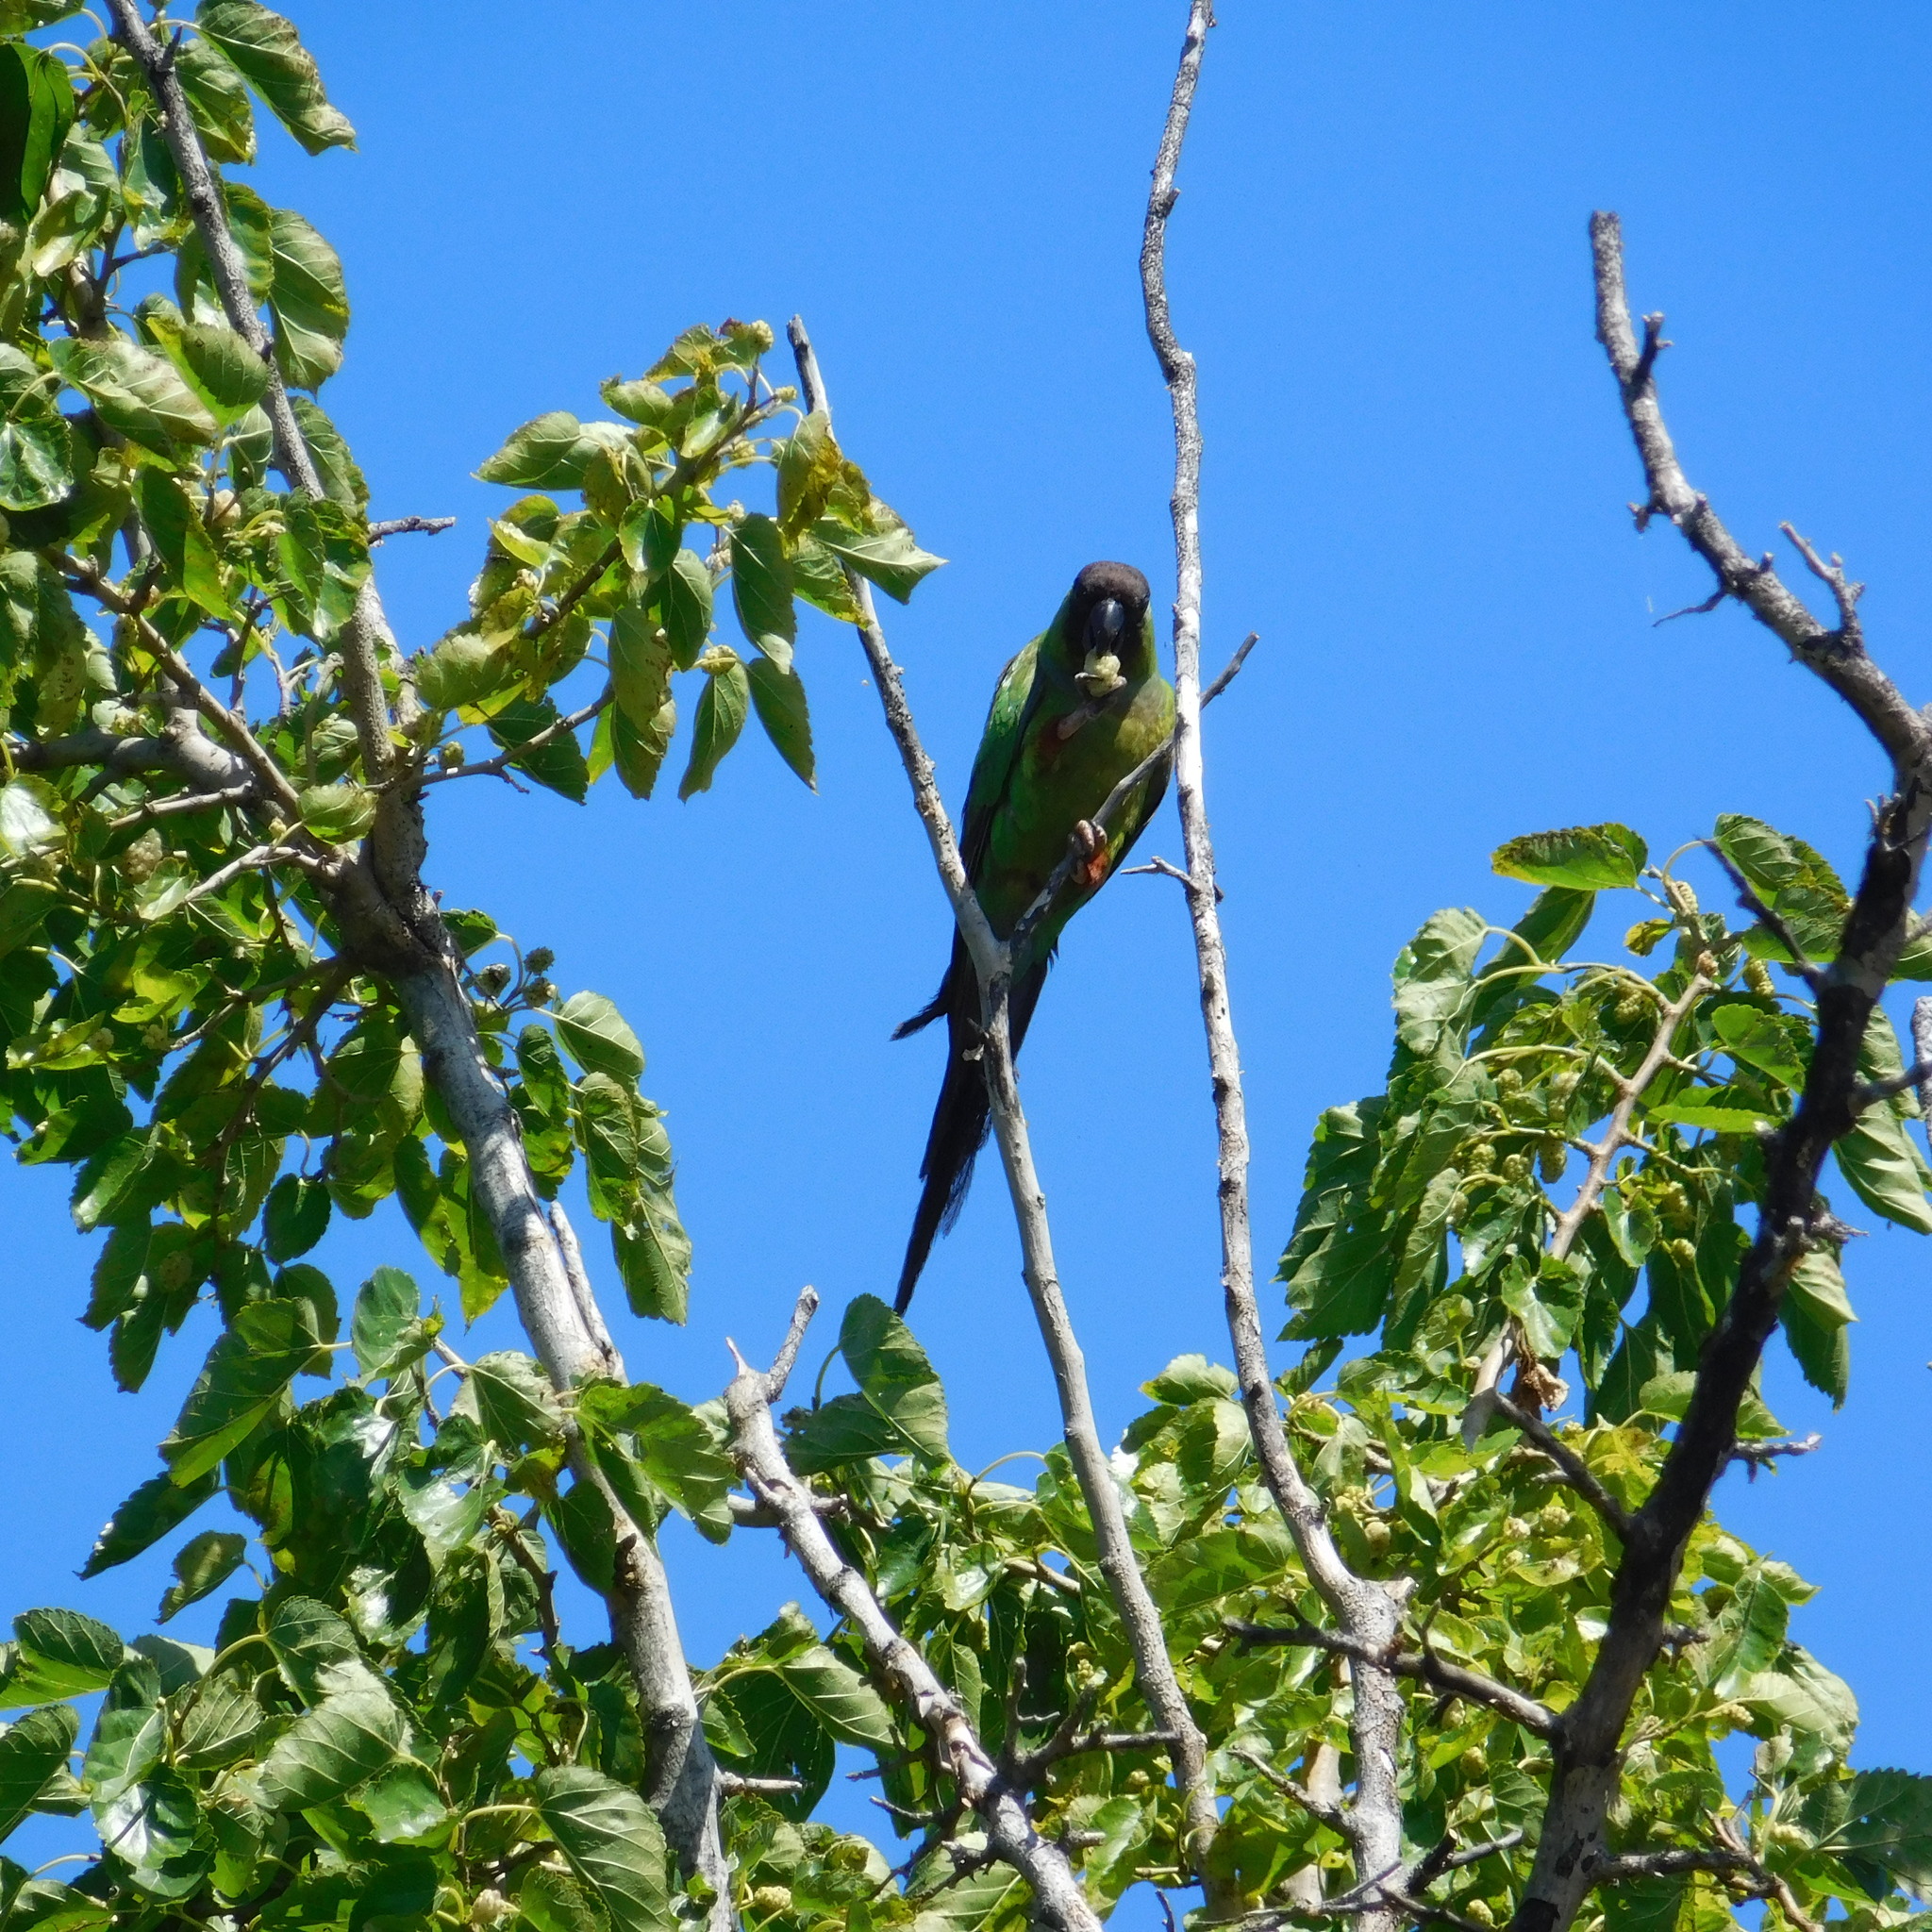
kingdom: Animalia
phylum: Chordata
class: Aves
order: Psittaciformes
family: Psittacidae
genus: Nandayus
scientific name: Nandayus nenday
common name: Nanday parakeet
